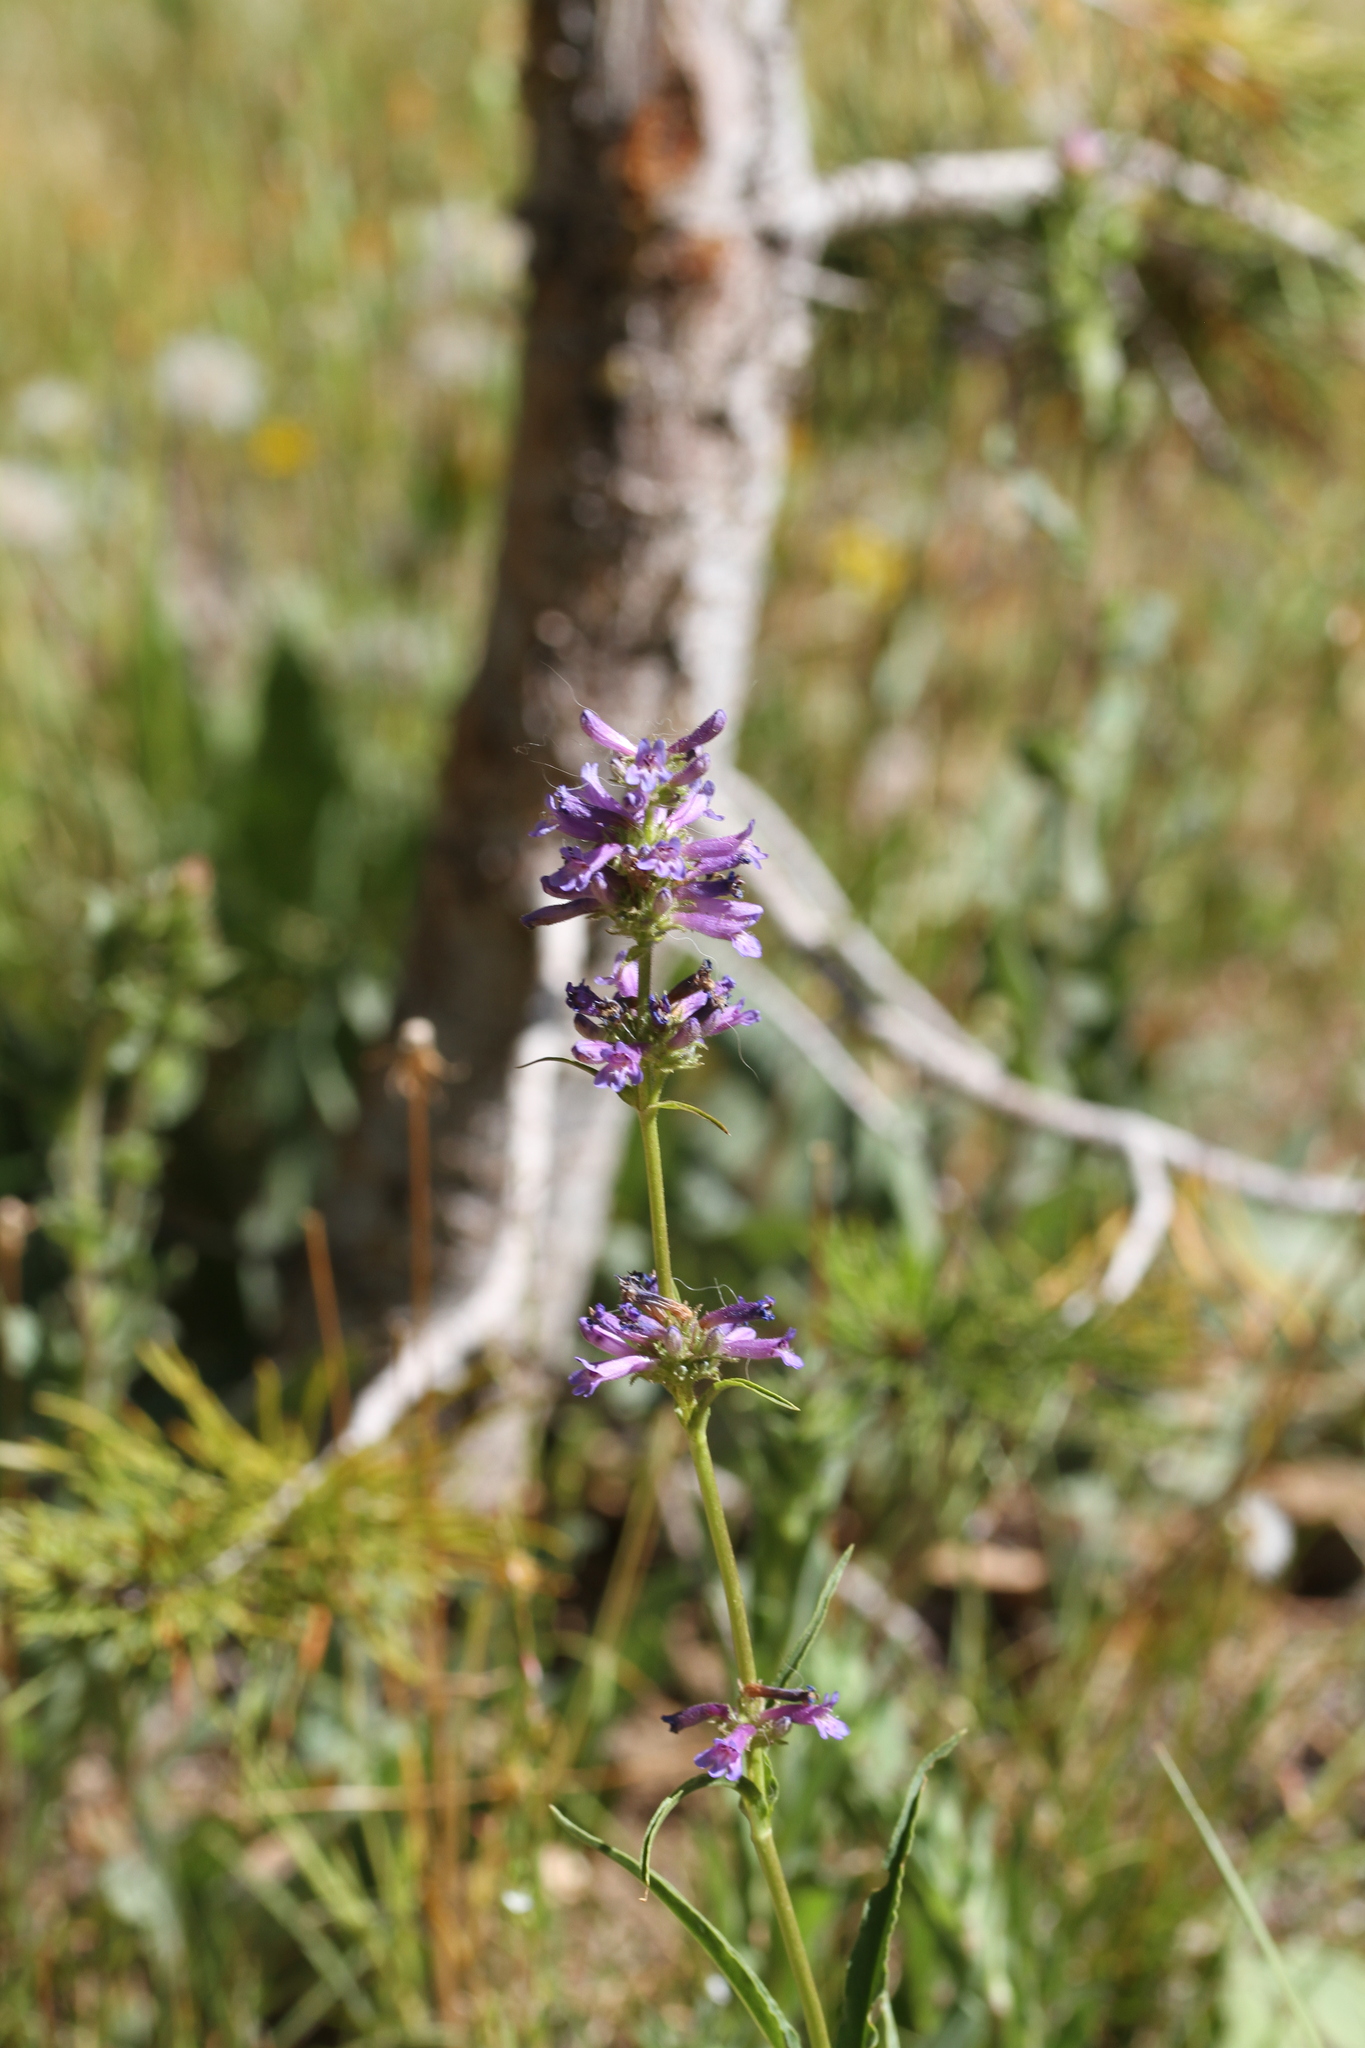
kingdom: Plantae
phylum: Tracheophyta
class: Magnoliopsida
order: Lamiales
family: Plantaginaceae
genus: Penstemon
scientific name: Penstemon rydbergii
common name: Rydberg's beardtongue
